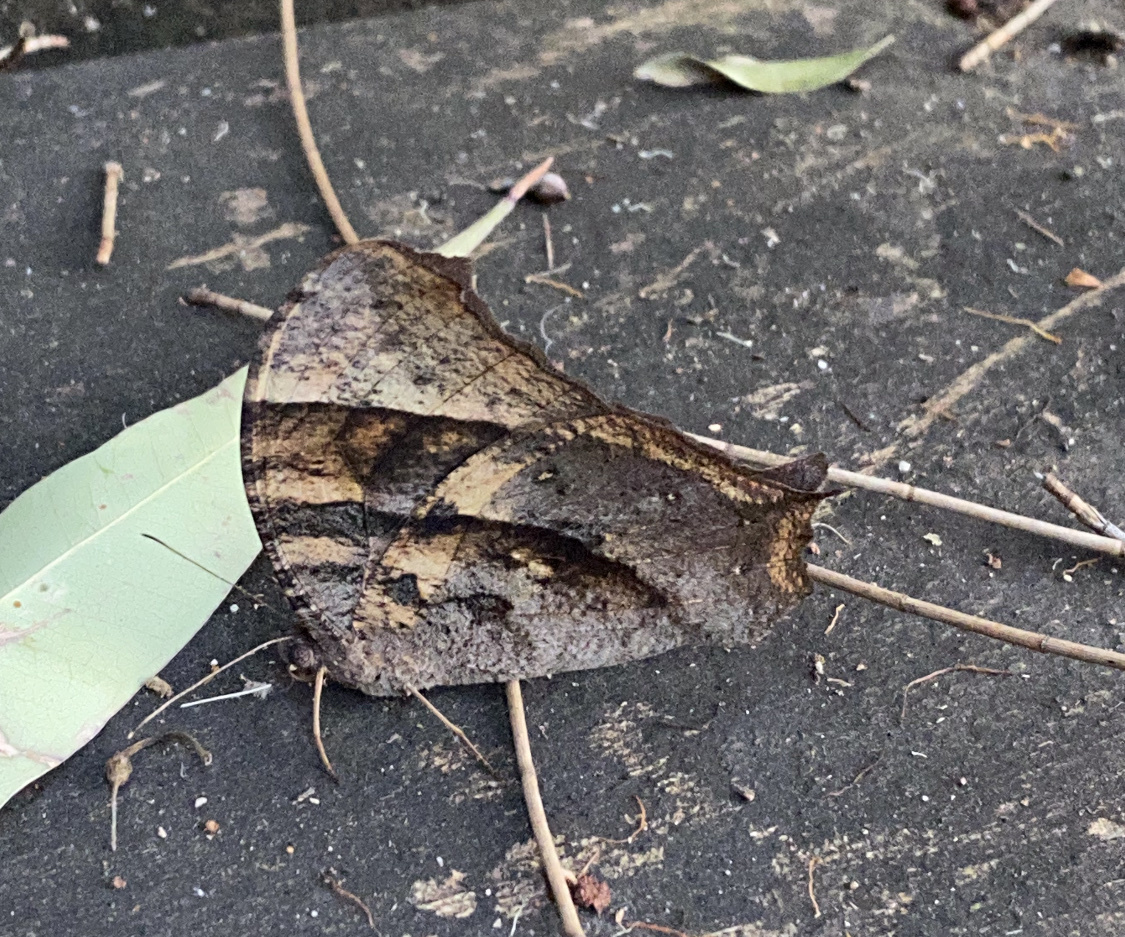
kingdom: Animalia
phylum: Arthropoda
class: Insecta
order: Lepidoptera
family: Nymphalidae
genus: Melanitis
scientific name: Melanitis leda
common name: Twilight brown
